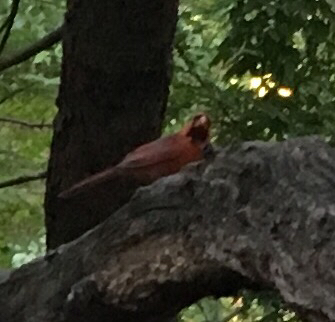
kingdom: Animalia
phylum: Chordata
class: Aves
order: Passeriformes
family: Cardinalidae
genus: Cardinalis
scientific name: Cardinalis cardinalis
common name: Northern cardinal
